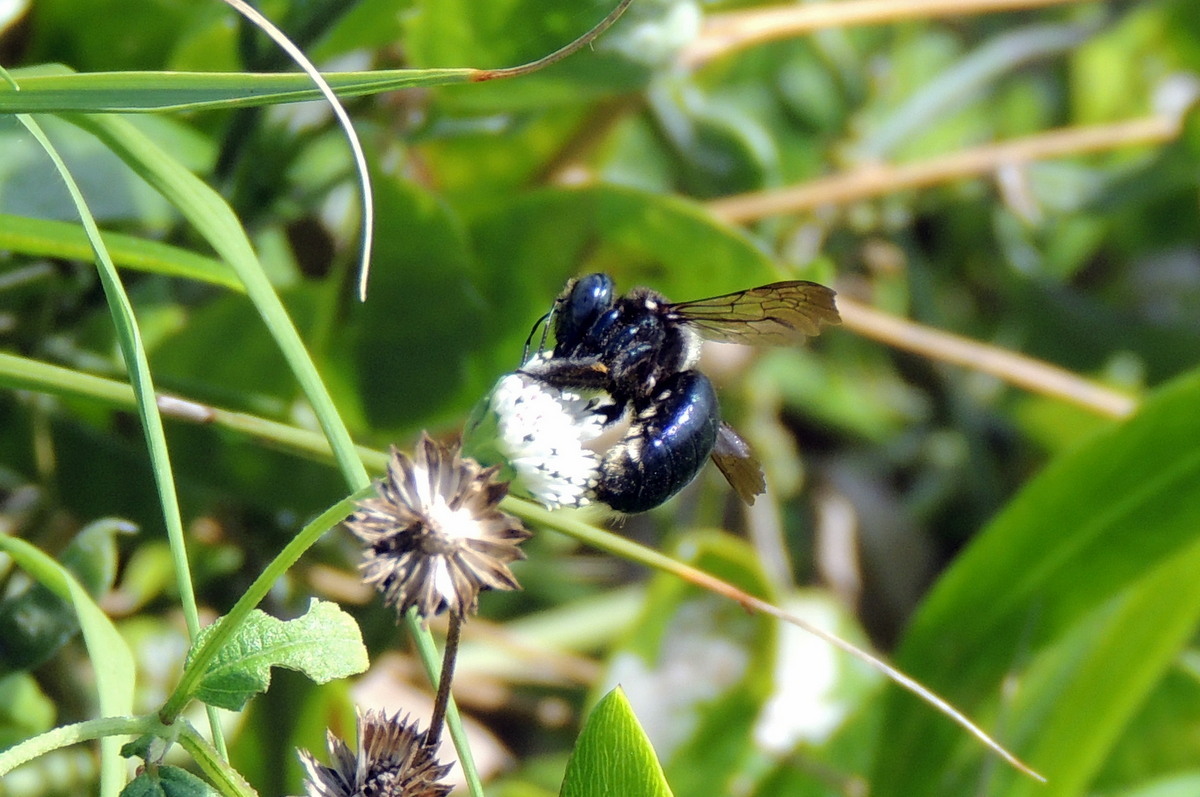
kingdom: Animalia
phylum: Arthropoda
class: Insecta
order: Hymenoptera
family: Apidae
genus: Xylocopa
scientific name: Xylocopa micans
